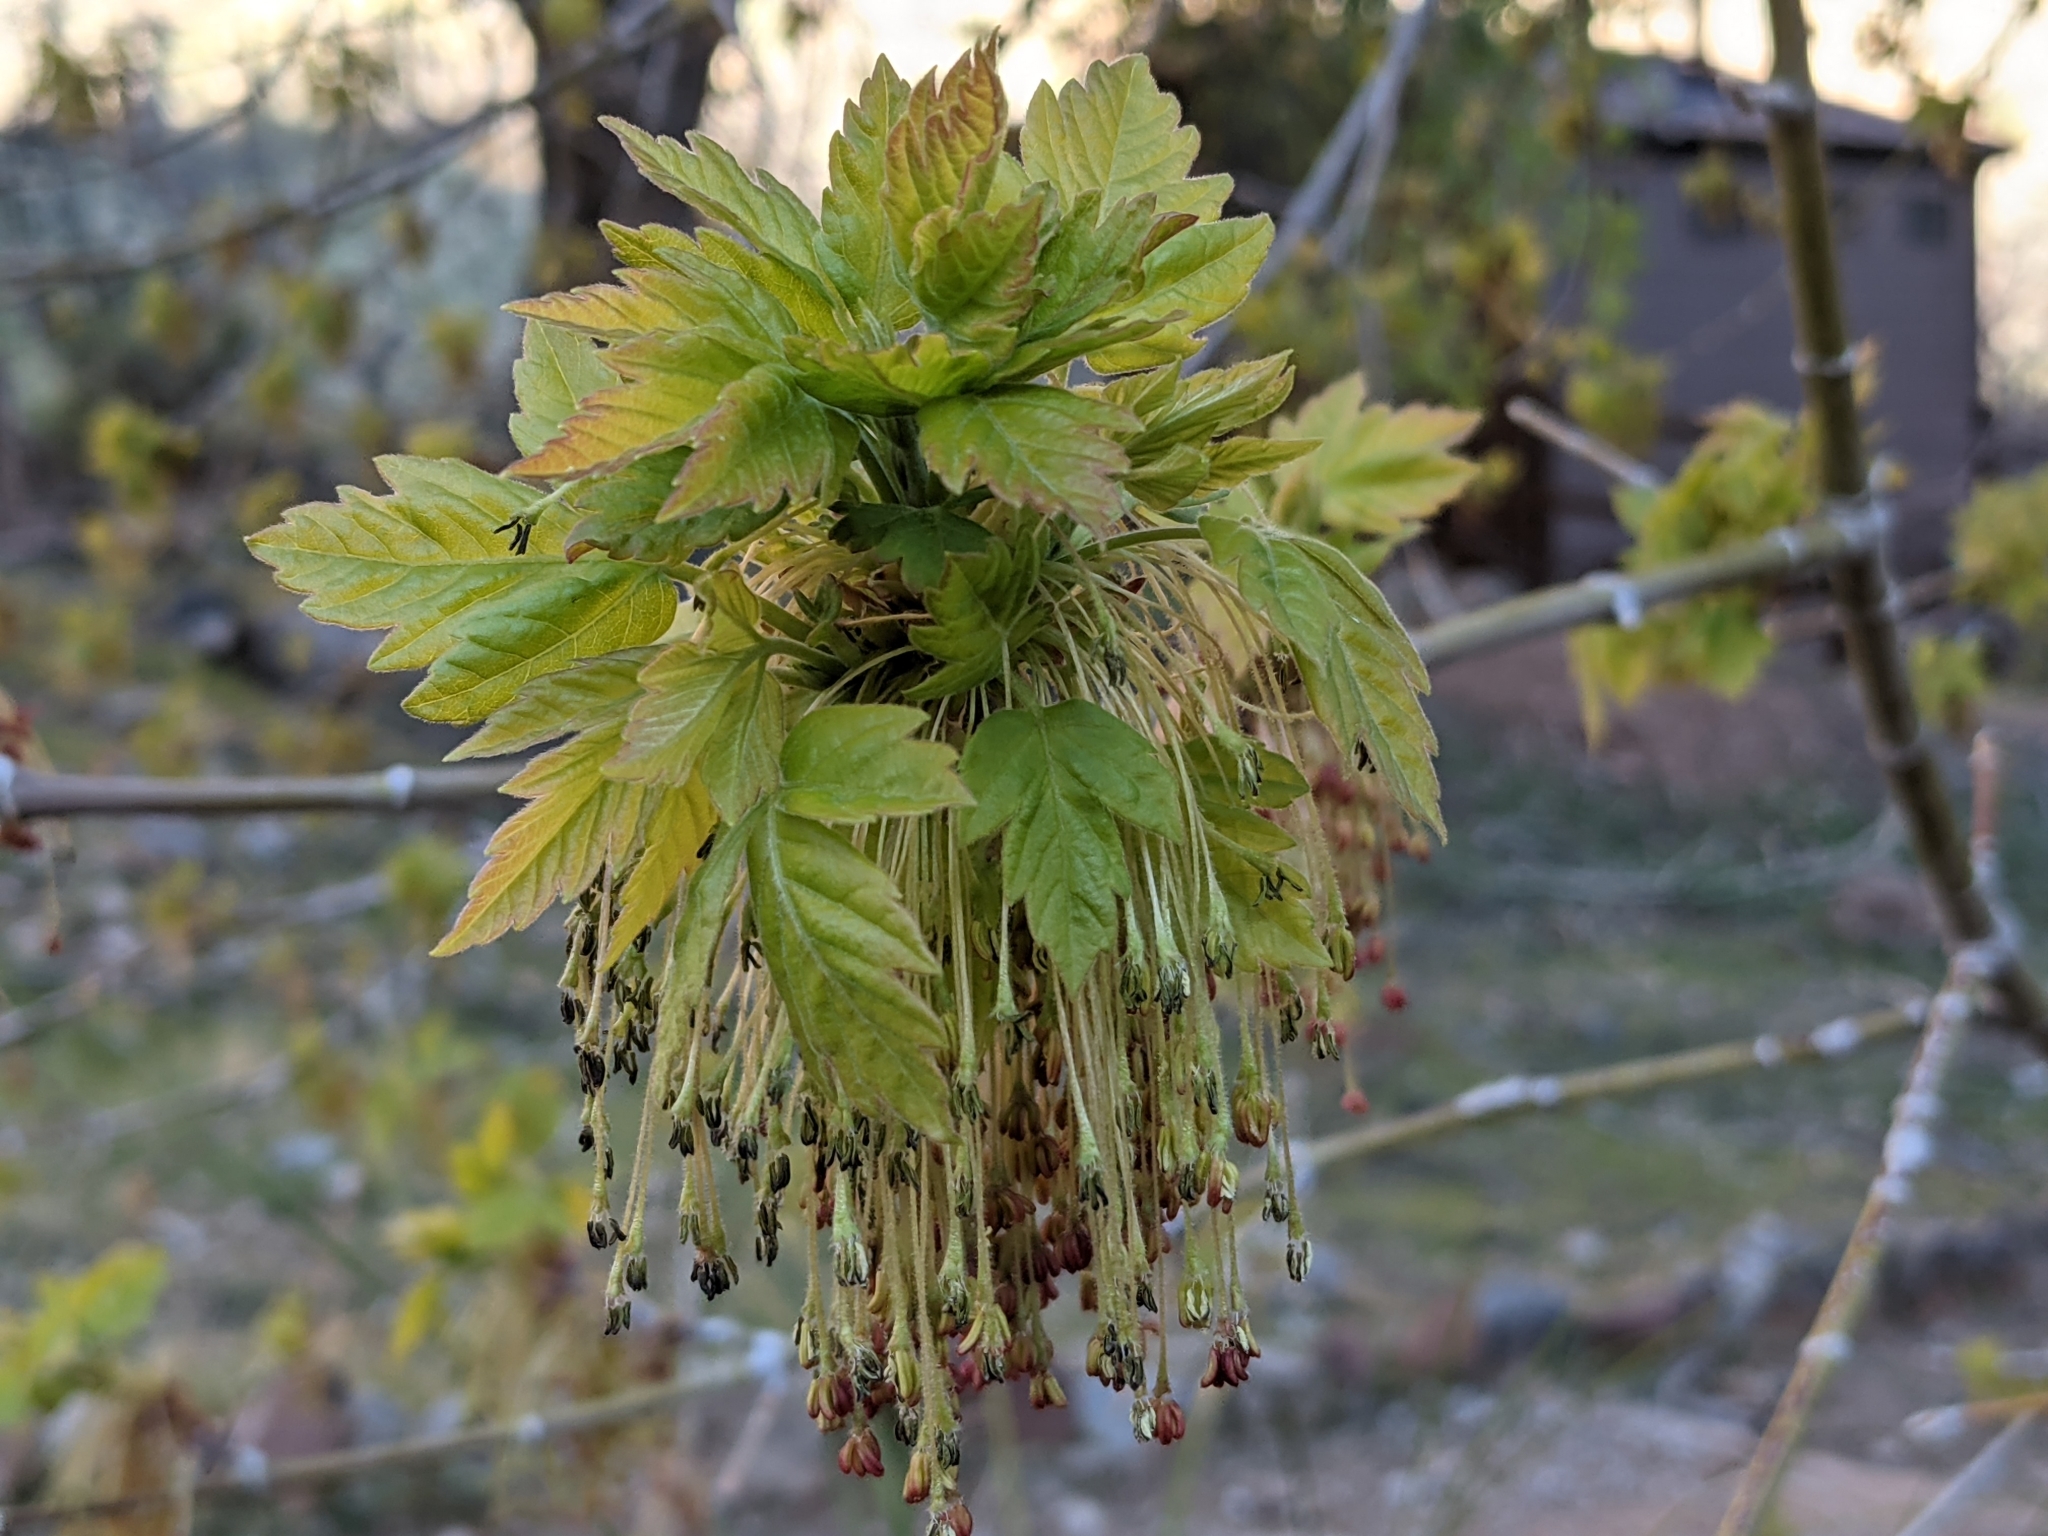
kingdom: Plantae
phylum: Tracheophyta
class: Magnoliopsida
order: Sapindales
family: Sapindaceae
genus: Acer
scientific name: Acer negundo
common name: Ashleaf maple
